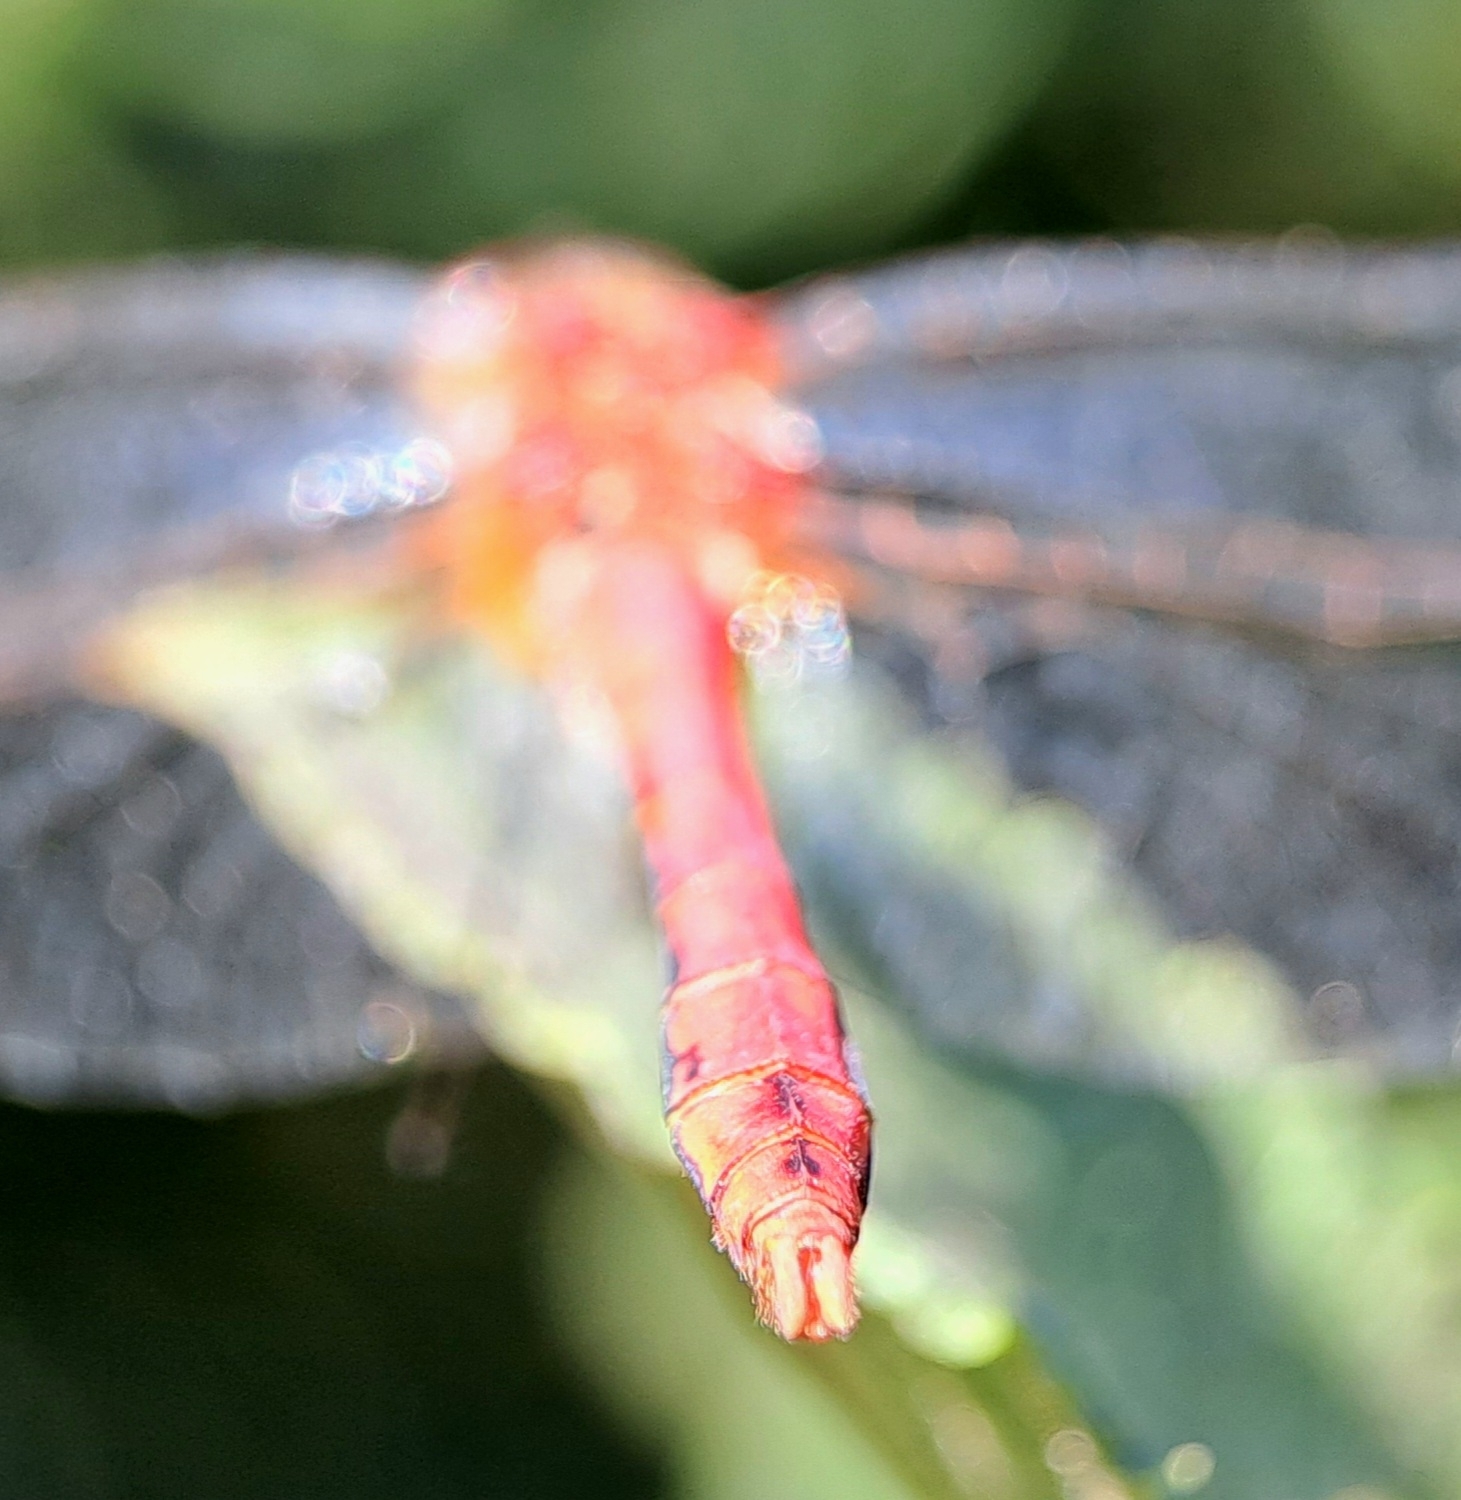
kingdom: Animalia
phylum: Arthropoda
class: Insecta
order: Odonata
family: Libellulidae
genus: Sympetrum
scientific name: Sympetrum sanguineum
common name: Ruddy darter
